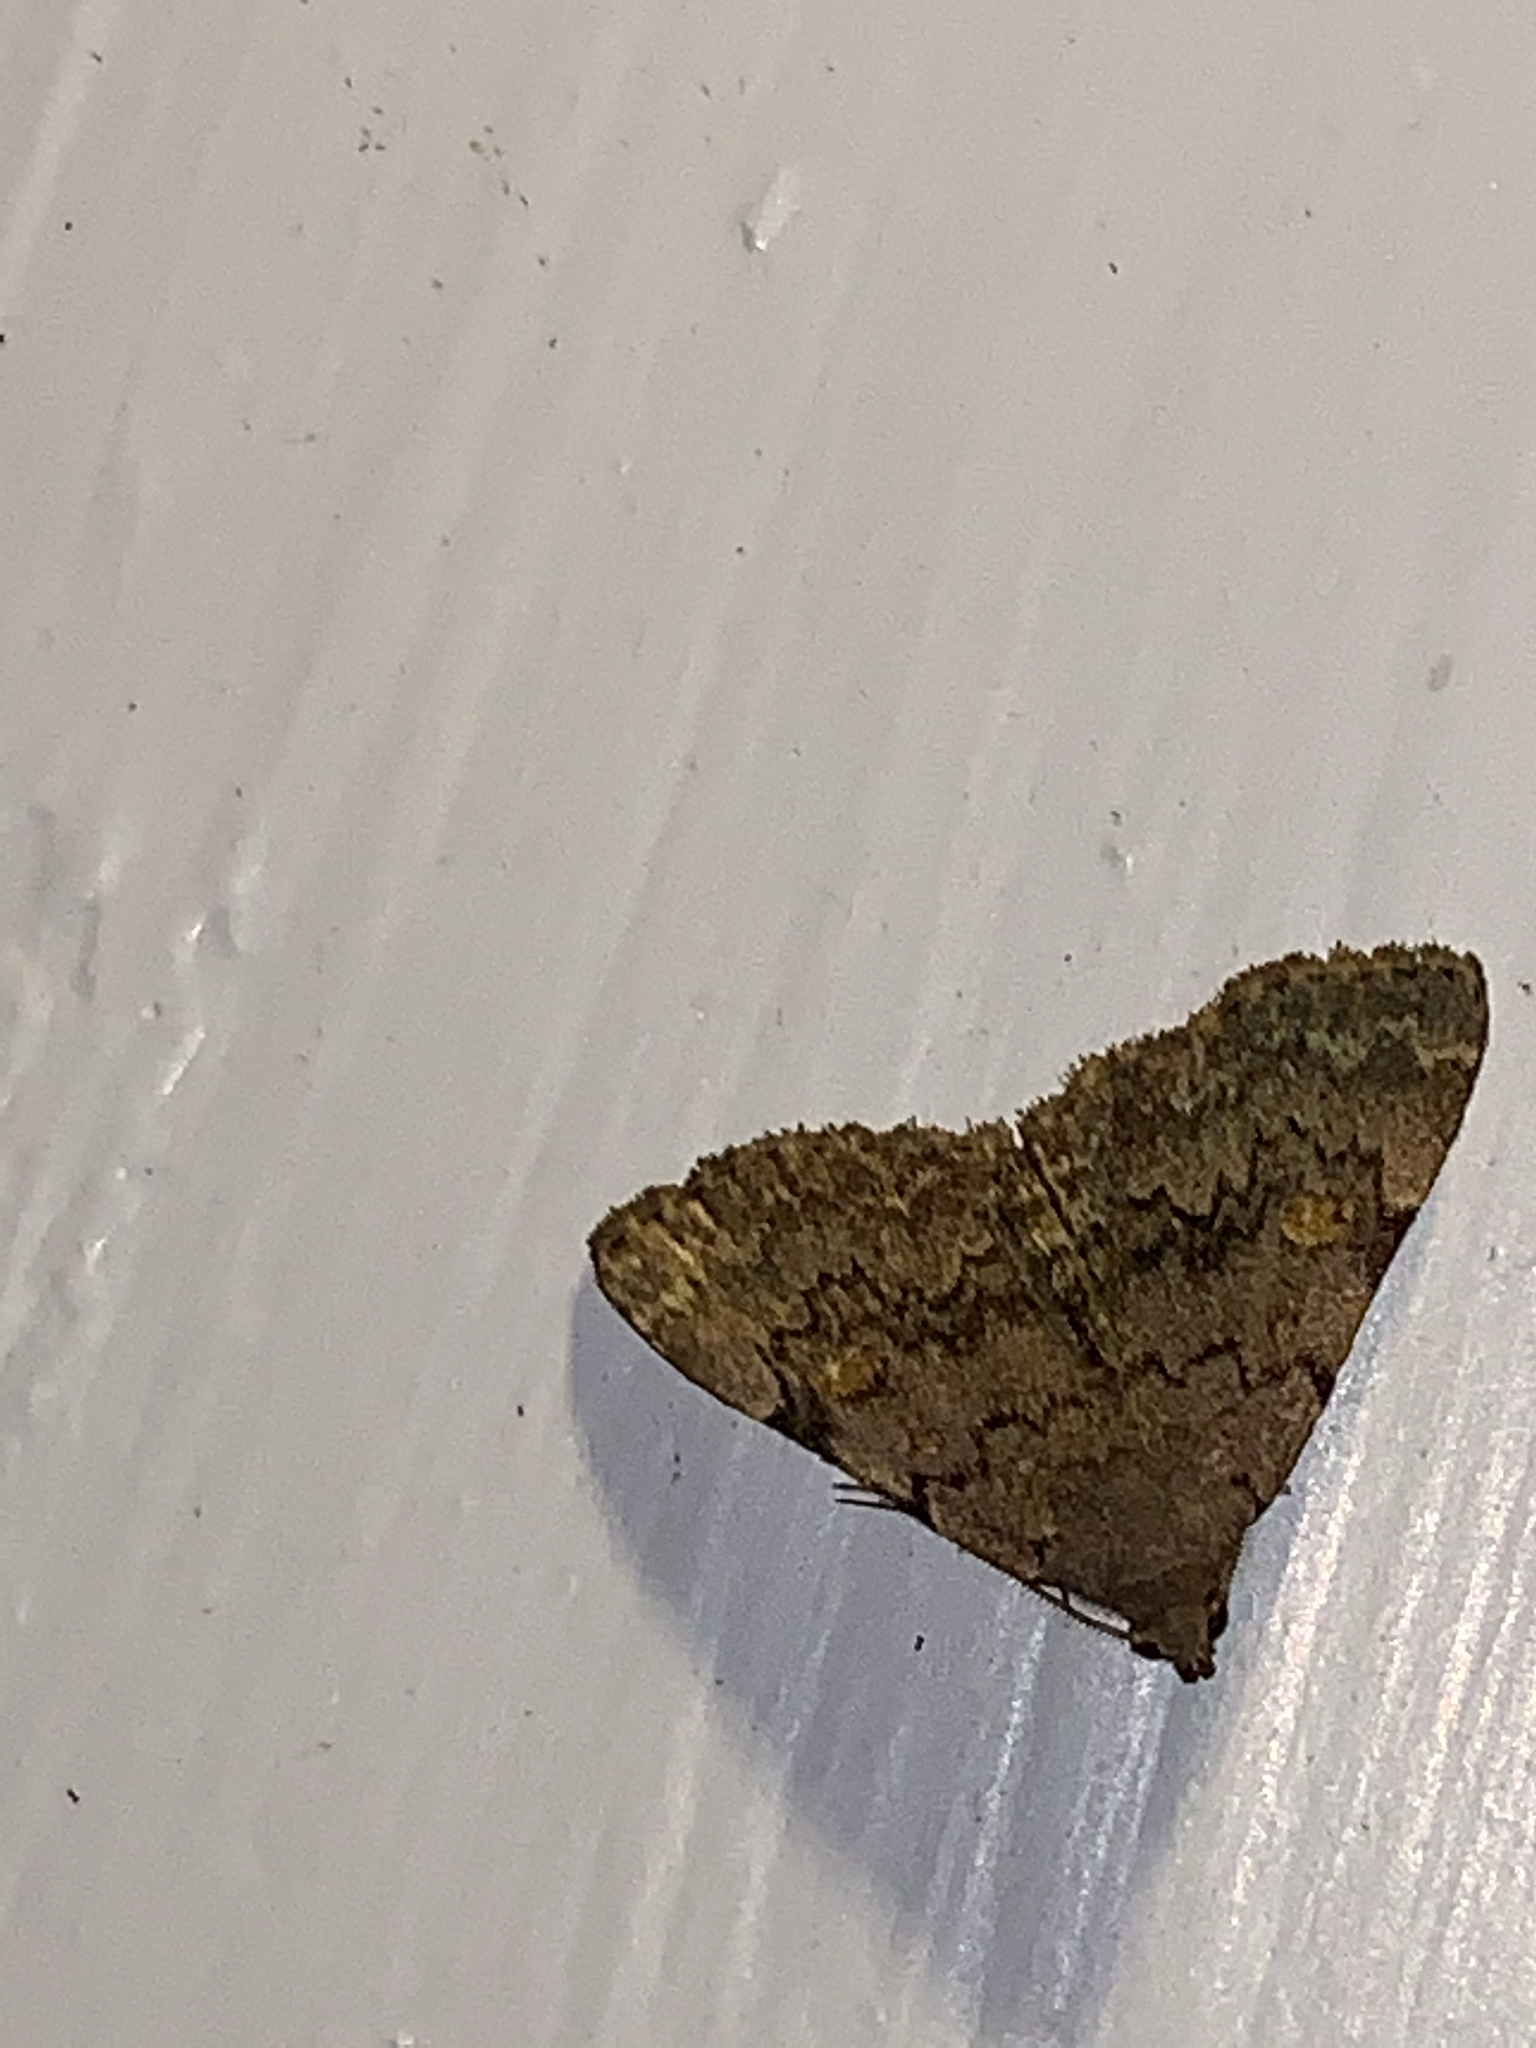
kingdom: Animalia
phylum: Arthropoda
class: Insecta
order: Lepidoptera
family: Erebidae
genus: Idia
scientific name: Idia aemula
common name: Common idia moth
